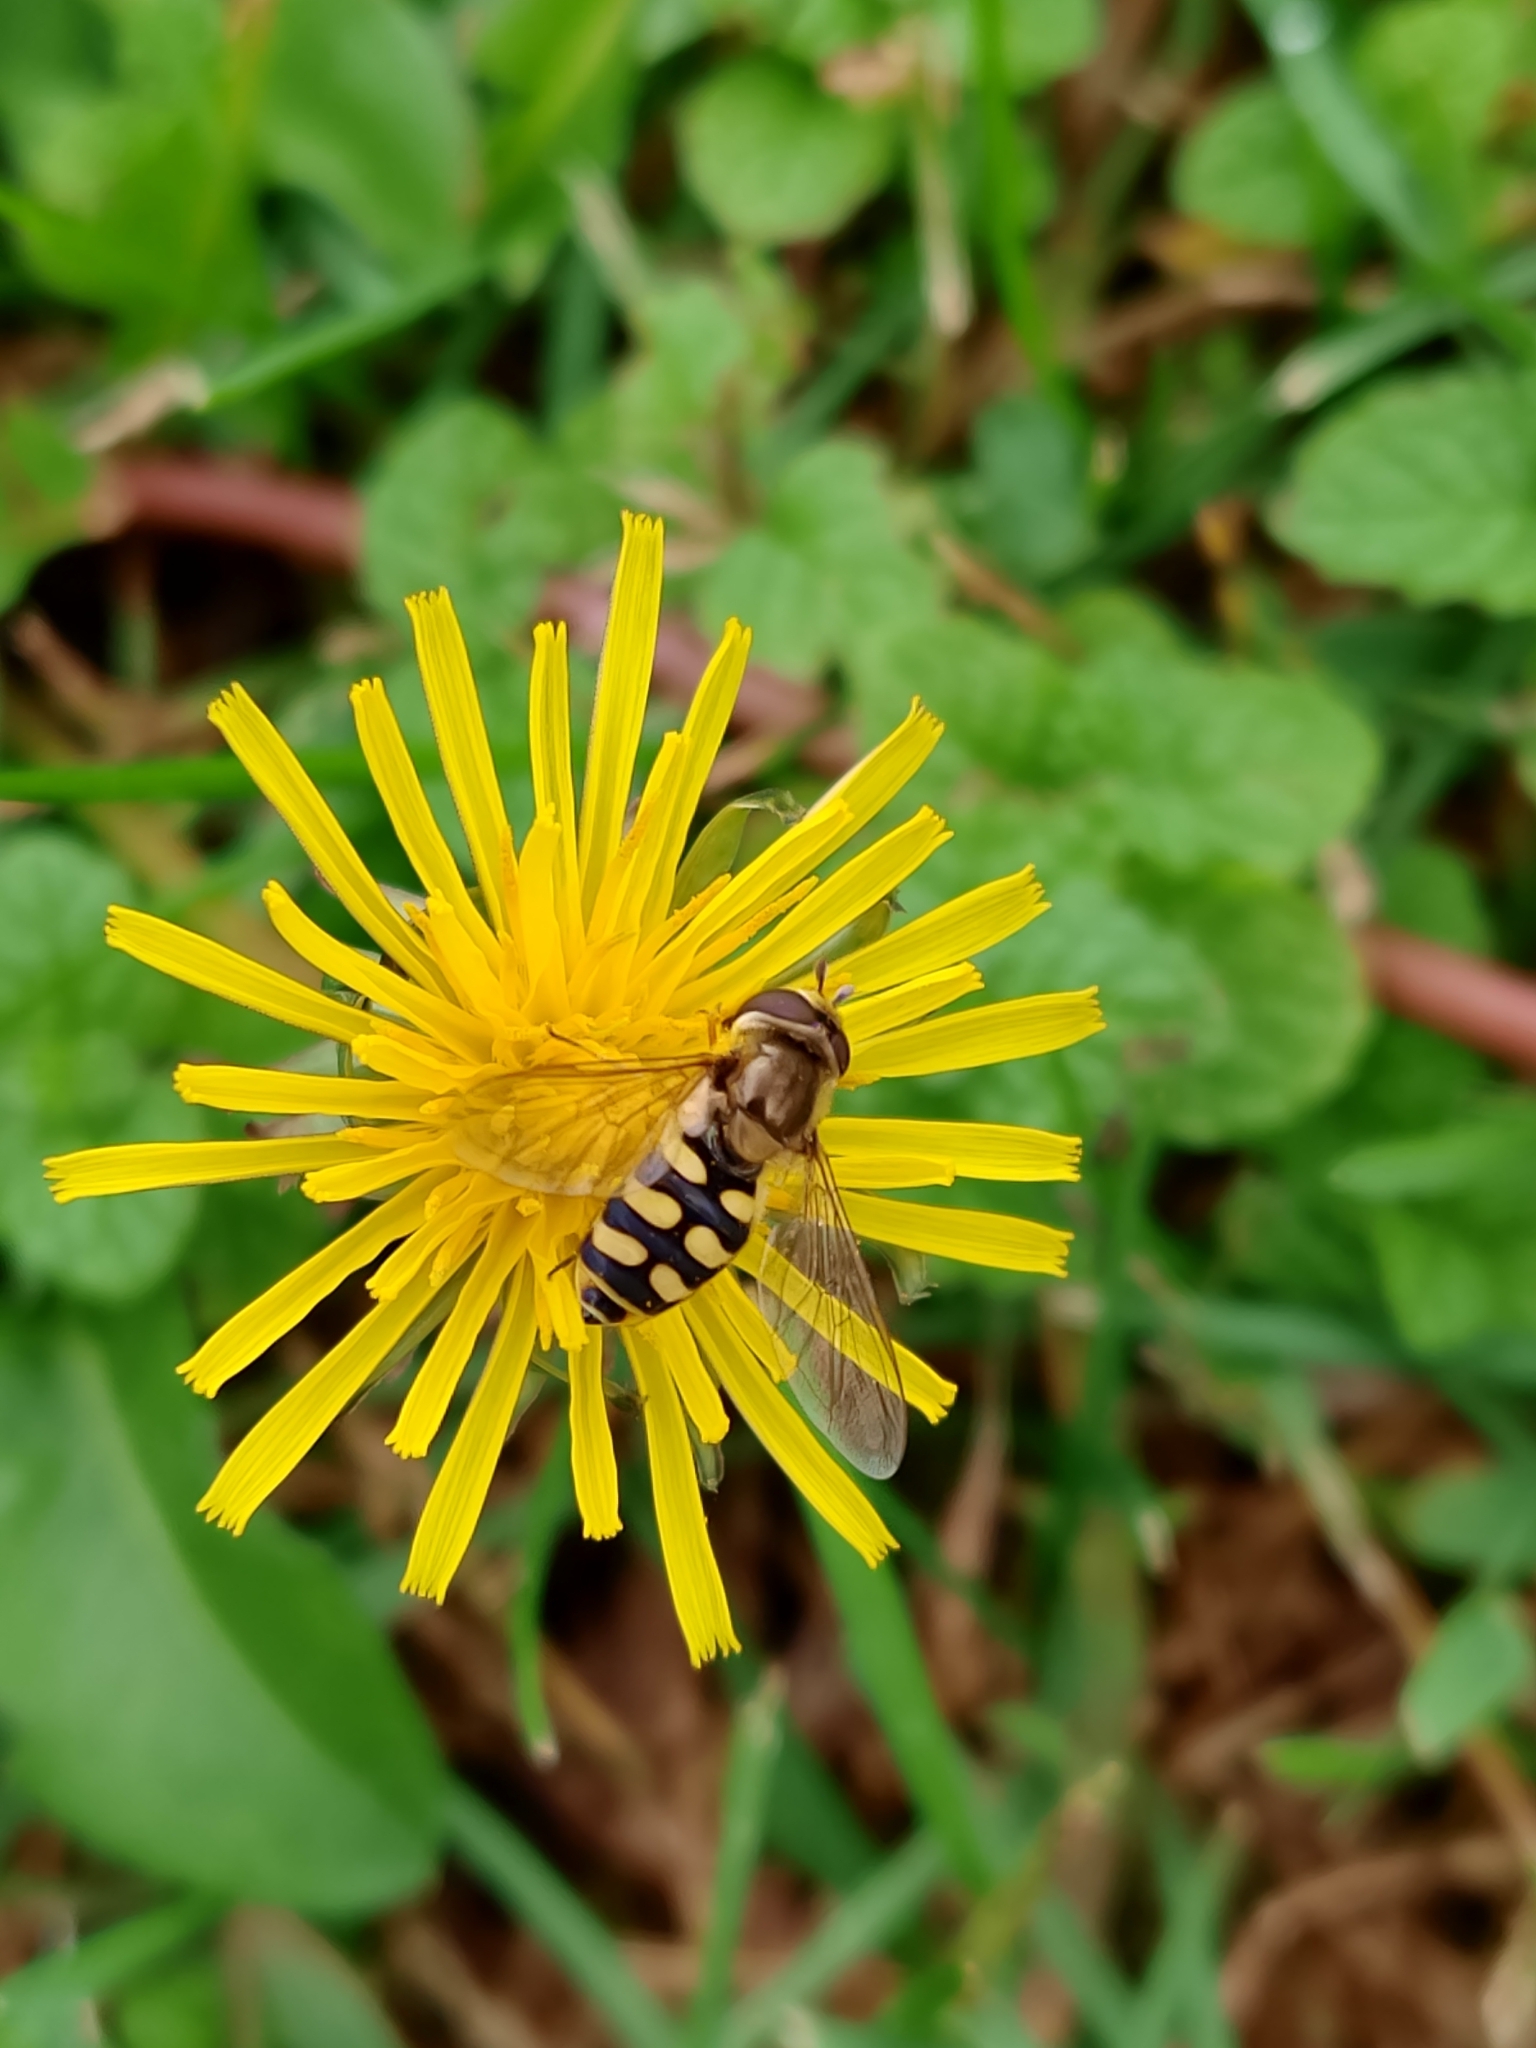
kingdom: Animalia
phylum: Arthropoda
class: Insecta
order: Diptera
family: Syrphidae
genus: Eupeodes
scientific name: Eupeodes luniger
